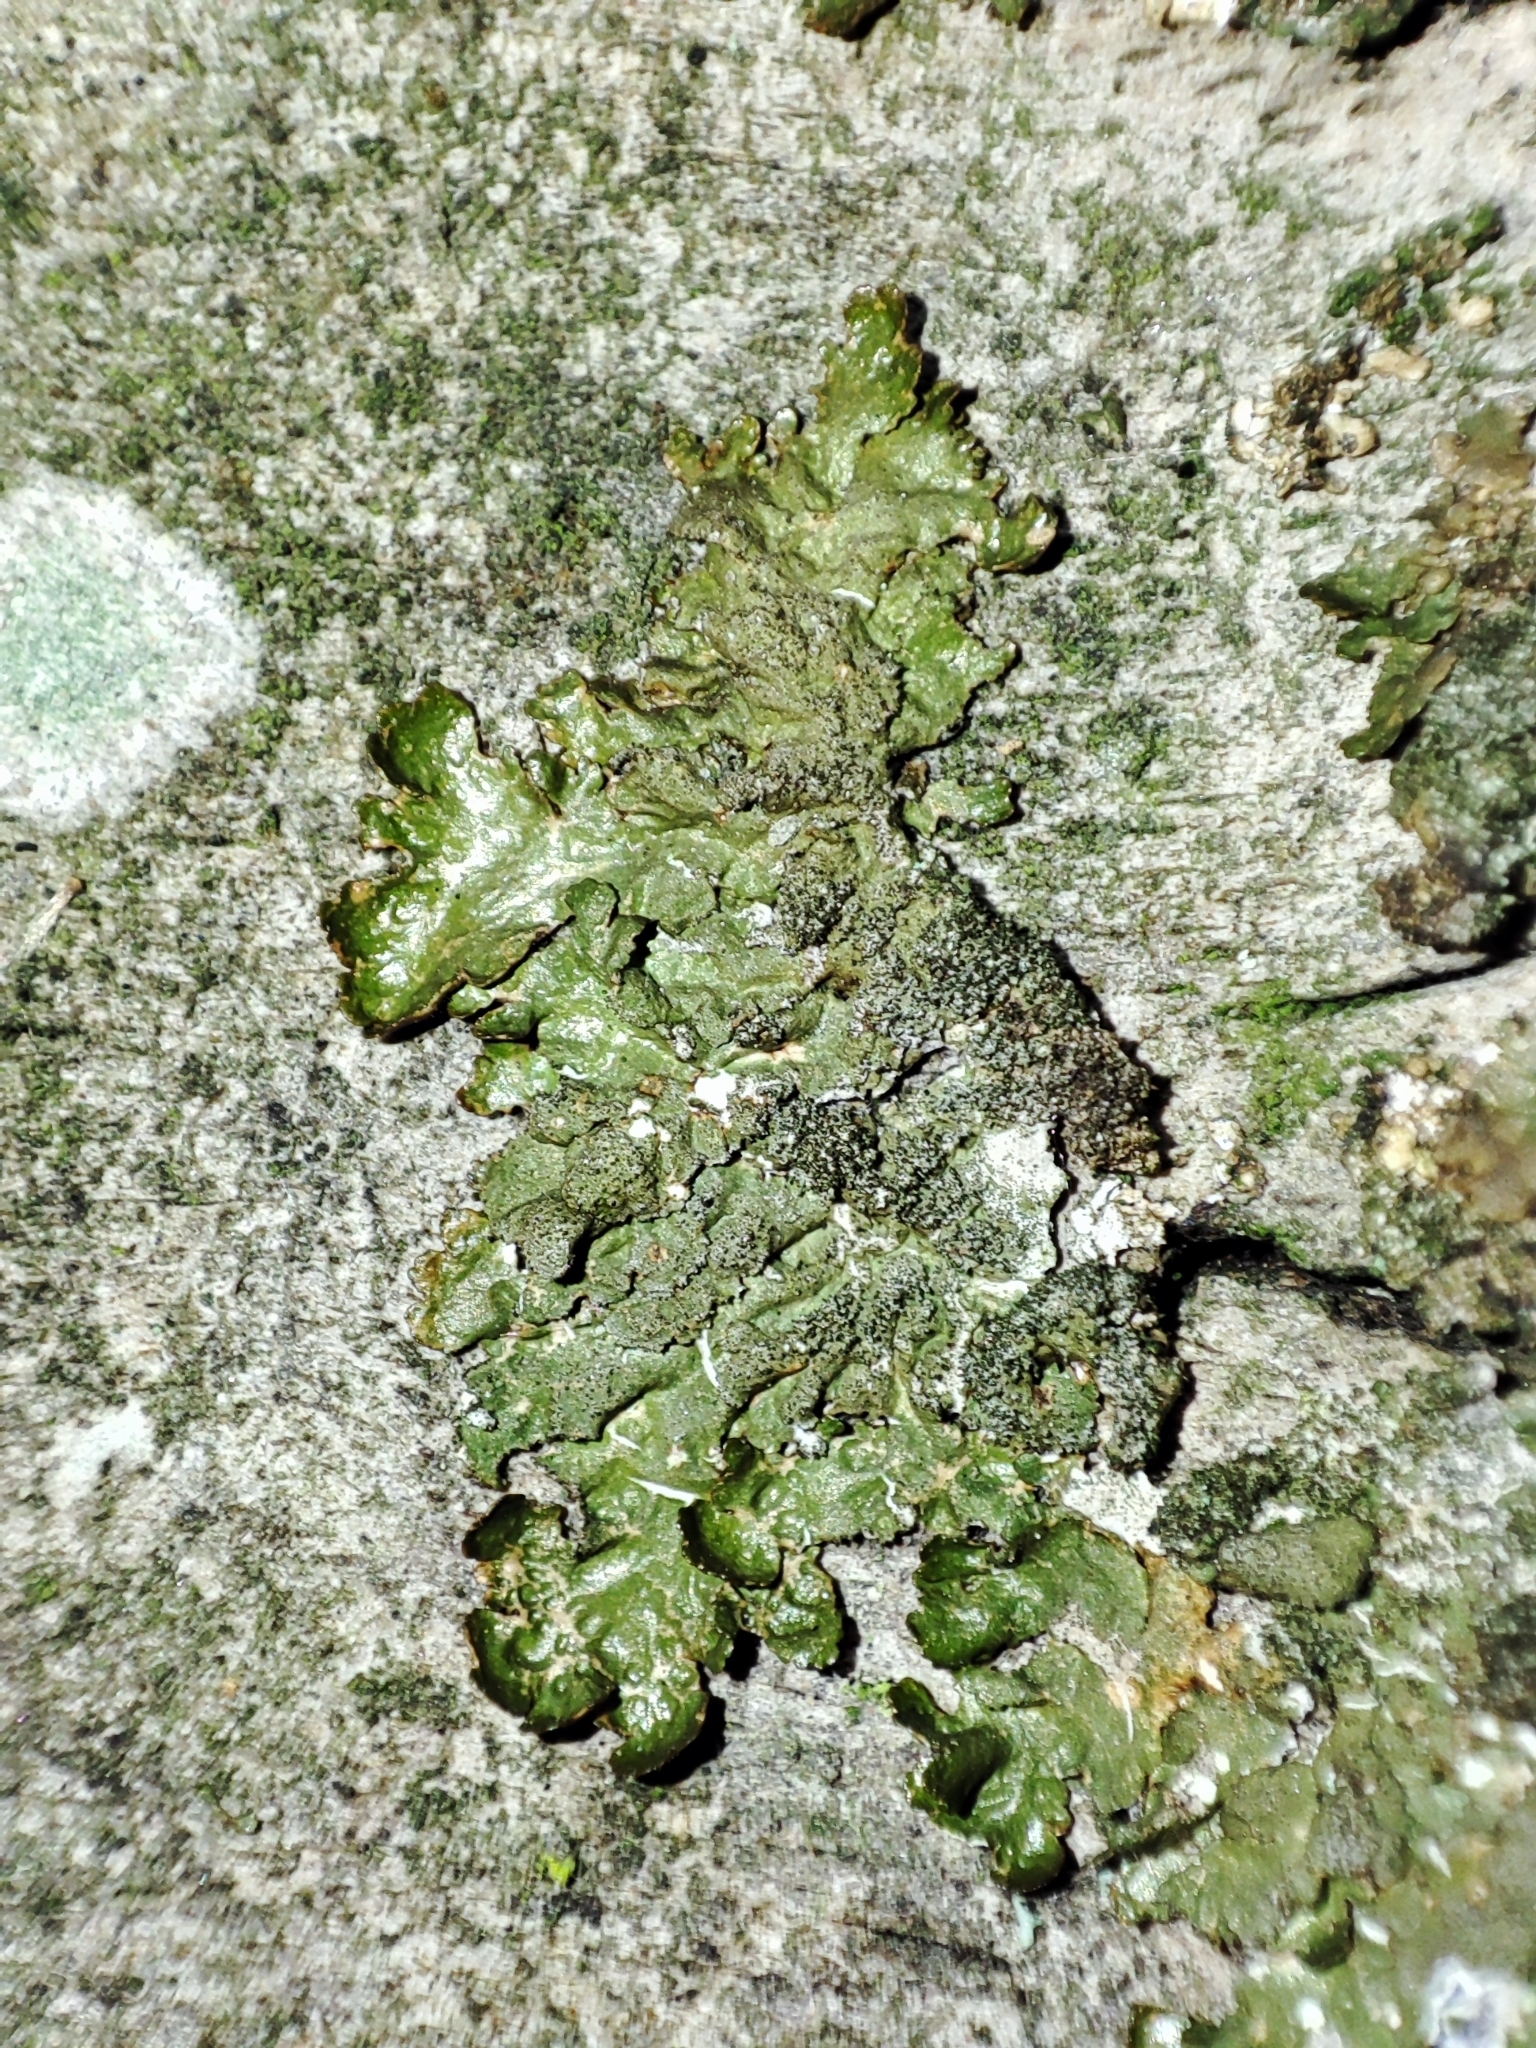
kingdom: Fungi
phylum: Ascomycota
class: Lecanoromycetes
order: Lecanorales
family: Parmeliaceae
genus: Melanelixia
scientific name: Melanelixia glabratula
